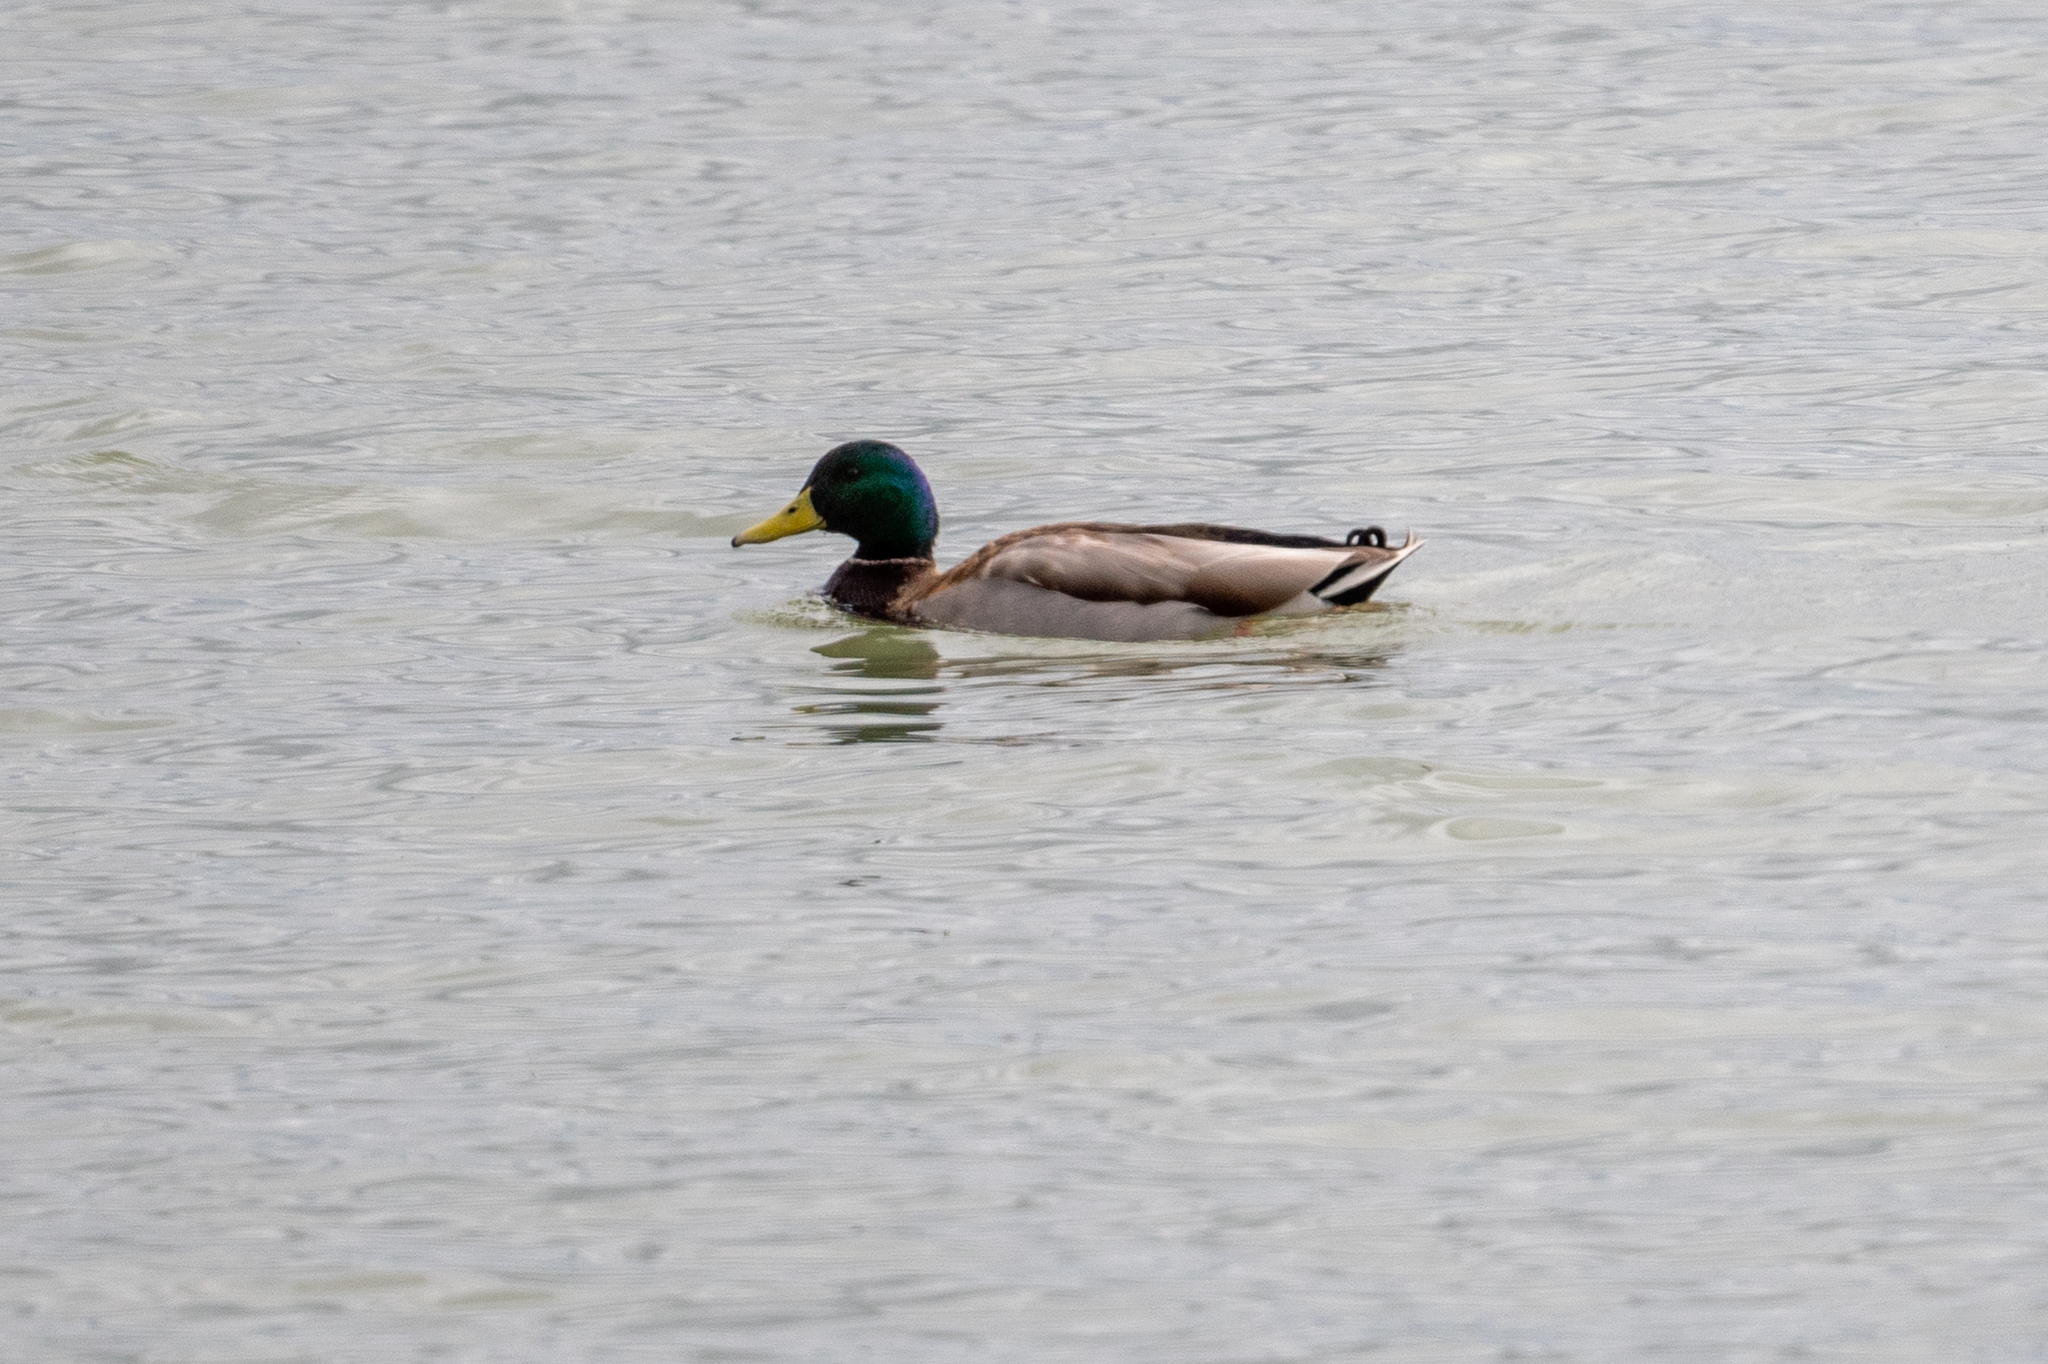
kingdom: Animalia
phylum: Chordata
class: Aves
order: Anseriformes
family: Anatidae
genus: Anas
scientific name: Anas platyrhynchos
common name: Mallard
